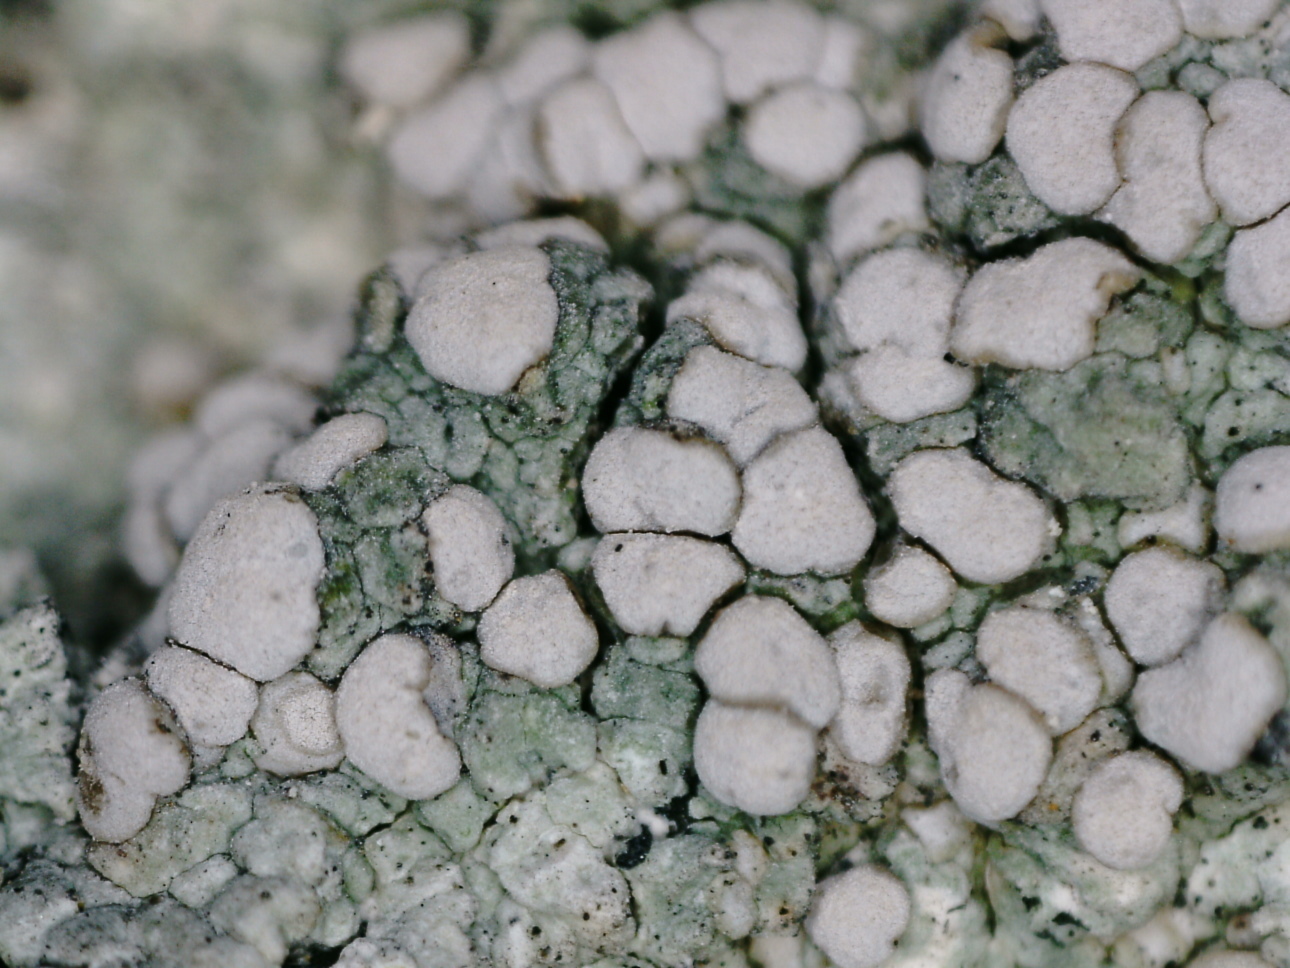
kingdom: Fungi
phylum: Ascomycota
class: Lecanoromycetes
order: Lecanorales
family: Lecanoraceae
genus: Lecanora
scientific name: Lecanora subcarnea
